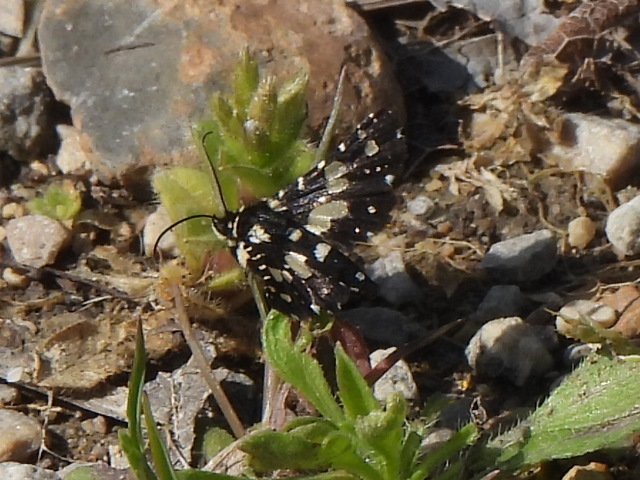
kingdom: Animalia
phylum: Arthropoda
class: Insecta
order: Lepidoptera
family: Thyrididae
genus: Pseudothyris
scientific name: Pseudothyris sepulchralis
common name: Mournful thyris moth
